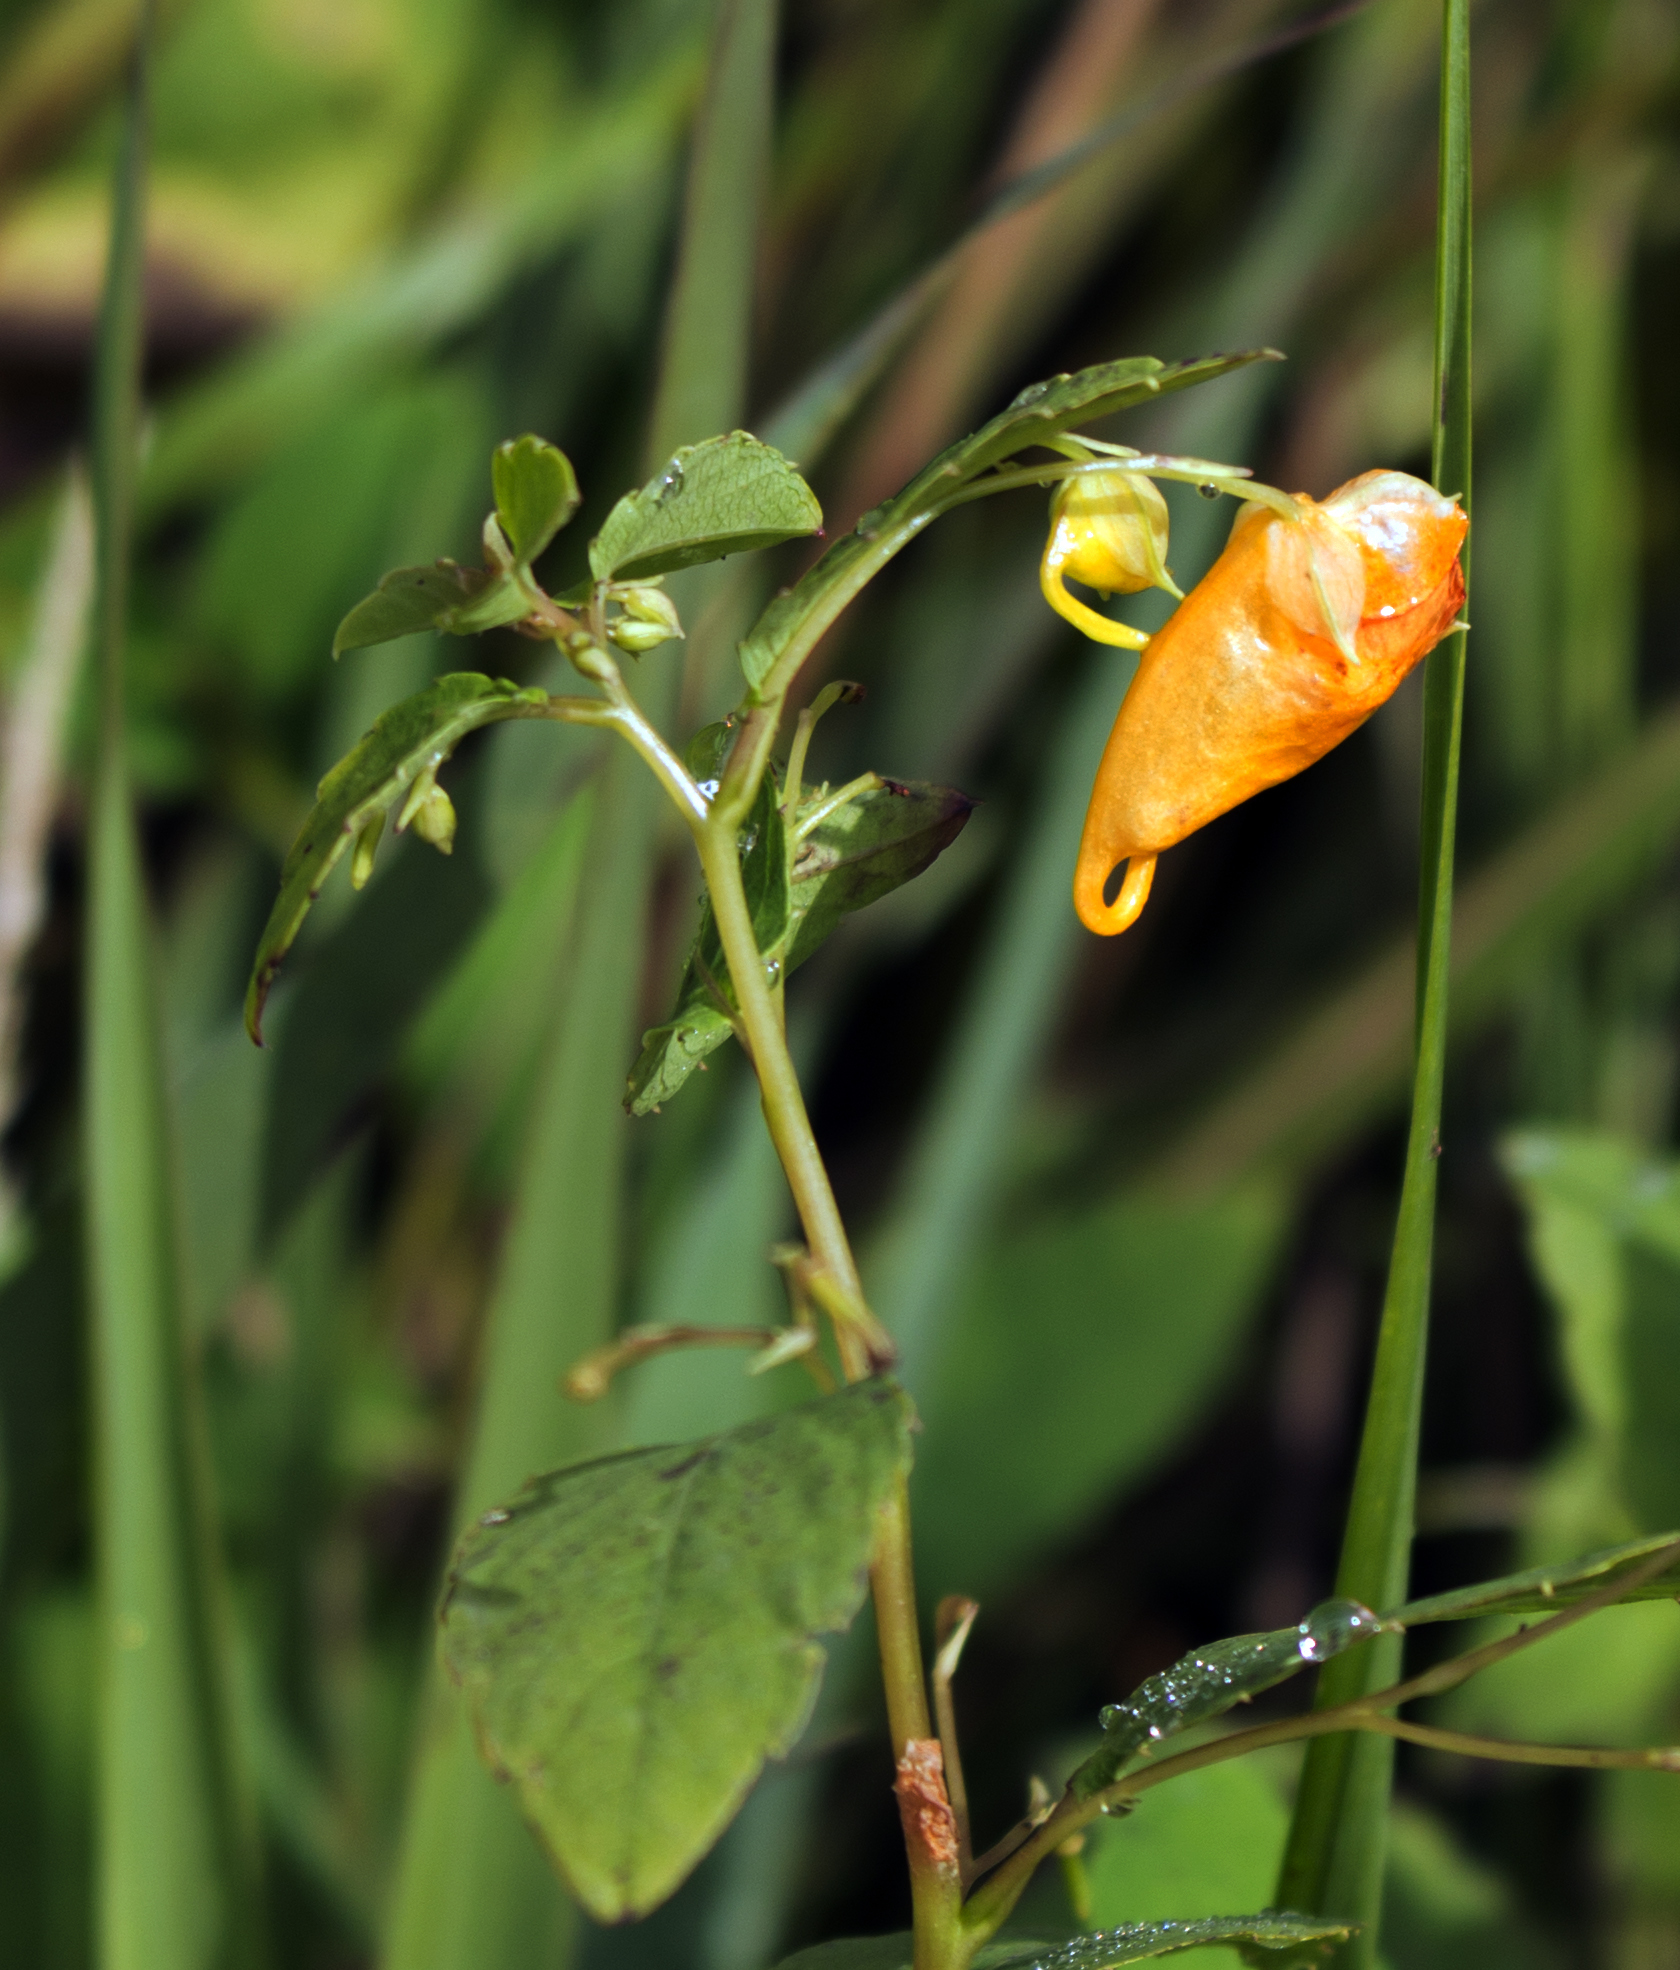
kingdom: Plantae
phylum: Tracheophyta
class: Magnoliopsida
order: Ericales
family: Balsaminaceae
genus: Impatiens
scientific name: Impatiens capensis
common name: Orange balsam
